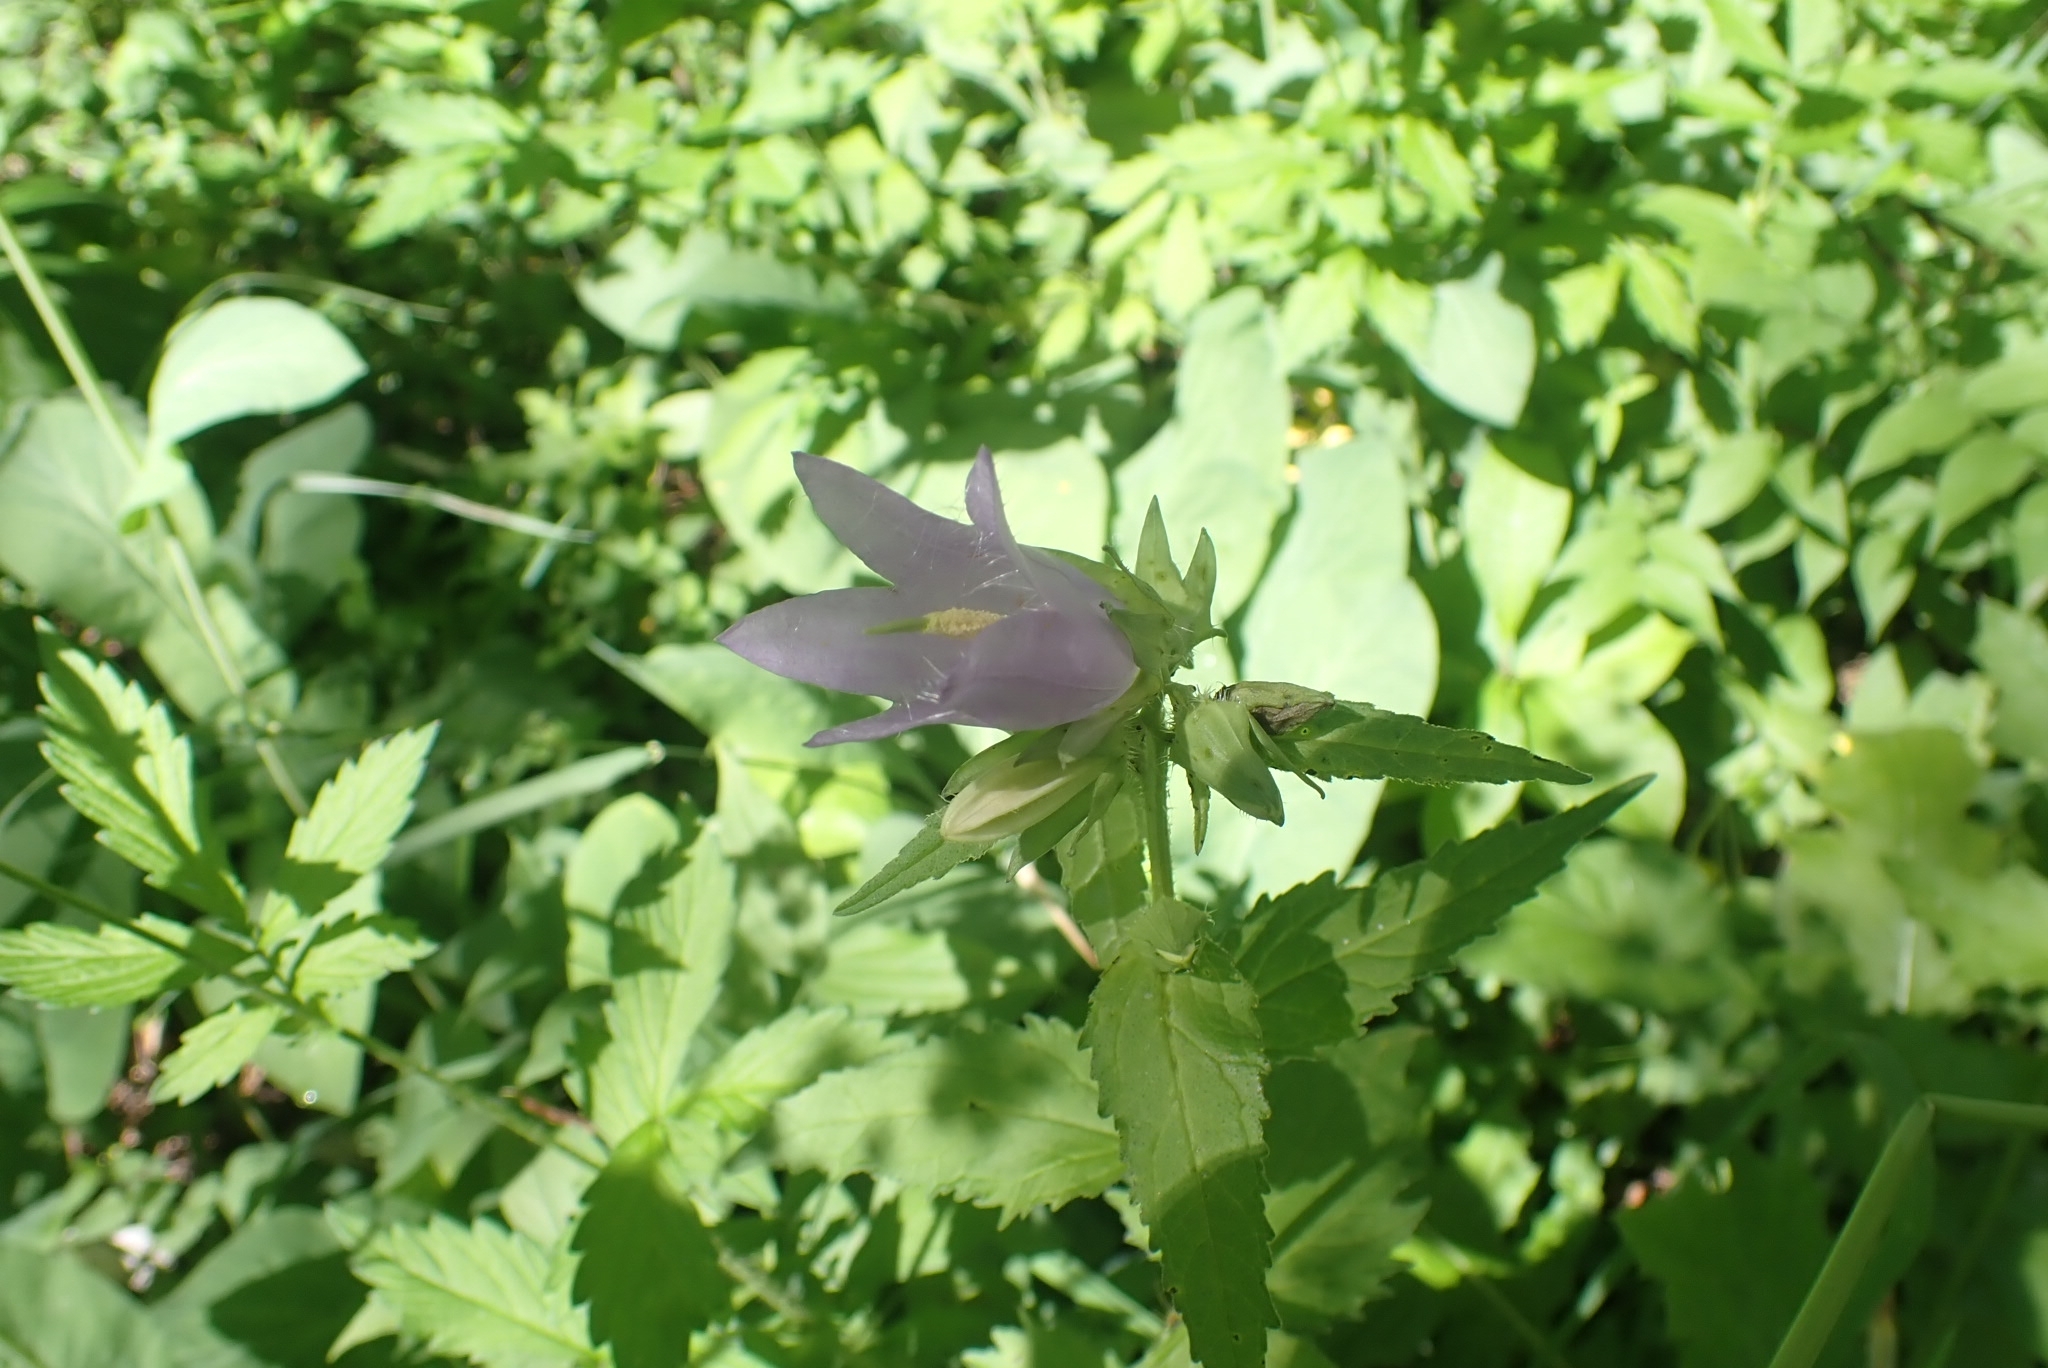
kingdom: Plantae
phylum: Tracheophyta
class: Magnoliopsida
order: Asterales
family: Campanulaceae
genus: Campanula
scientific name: Campanula trachelium
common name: Nettle-leaved bellflower
